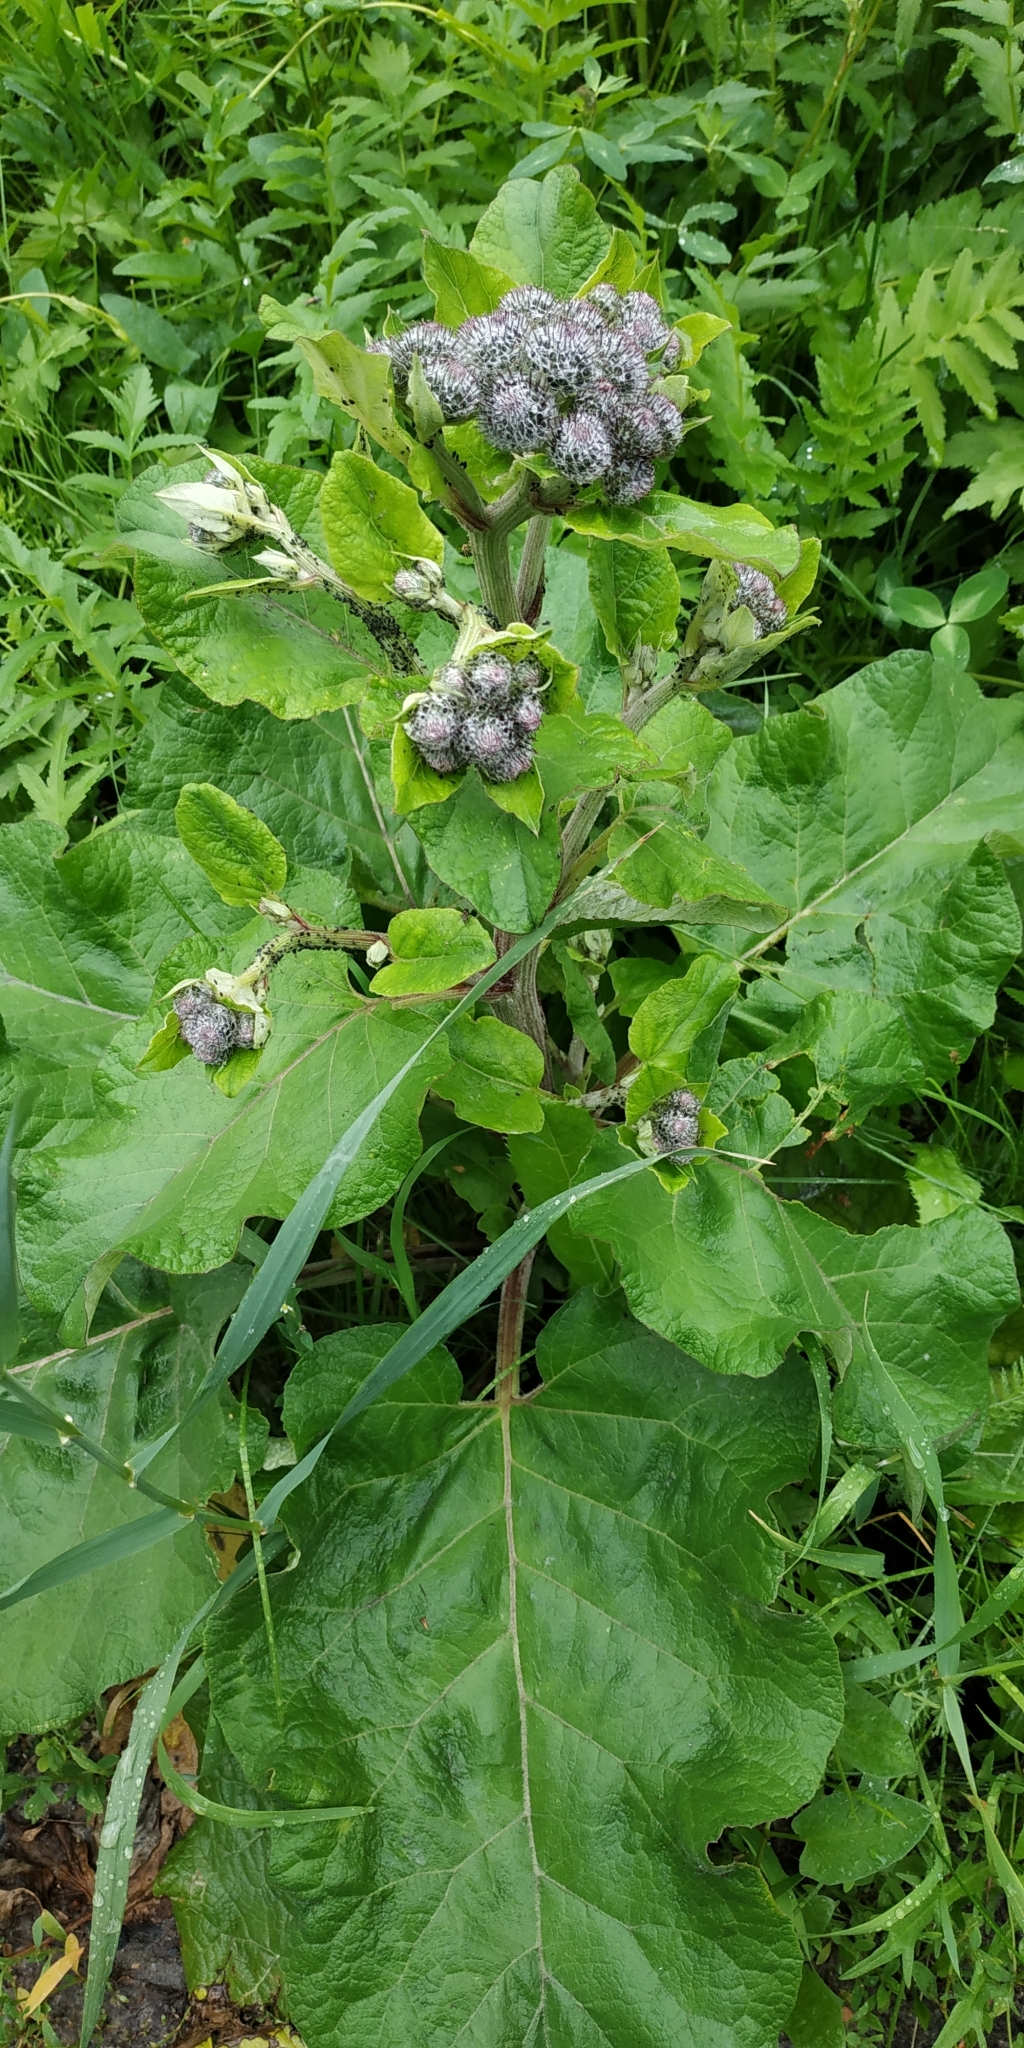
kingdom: Plantae
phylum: Tracheophyta
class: Magnoliopsida
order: Asterales
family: Asteraceae
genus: Arctium
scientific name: Arctium tomentosum
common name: Woolly burdock
